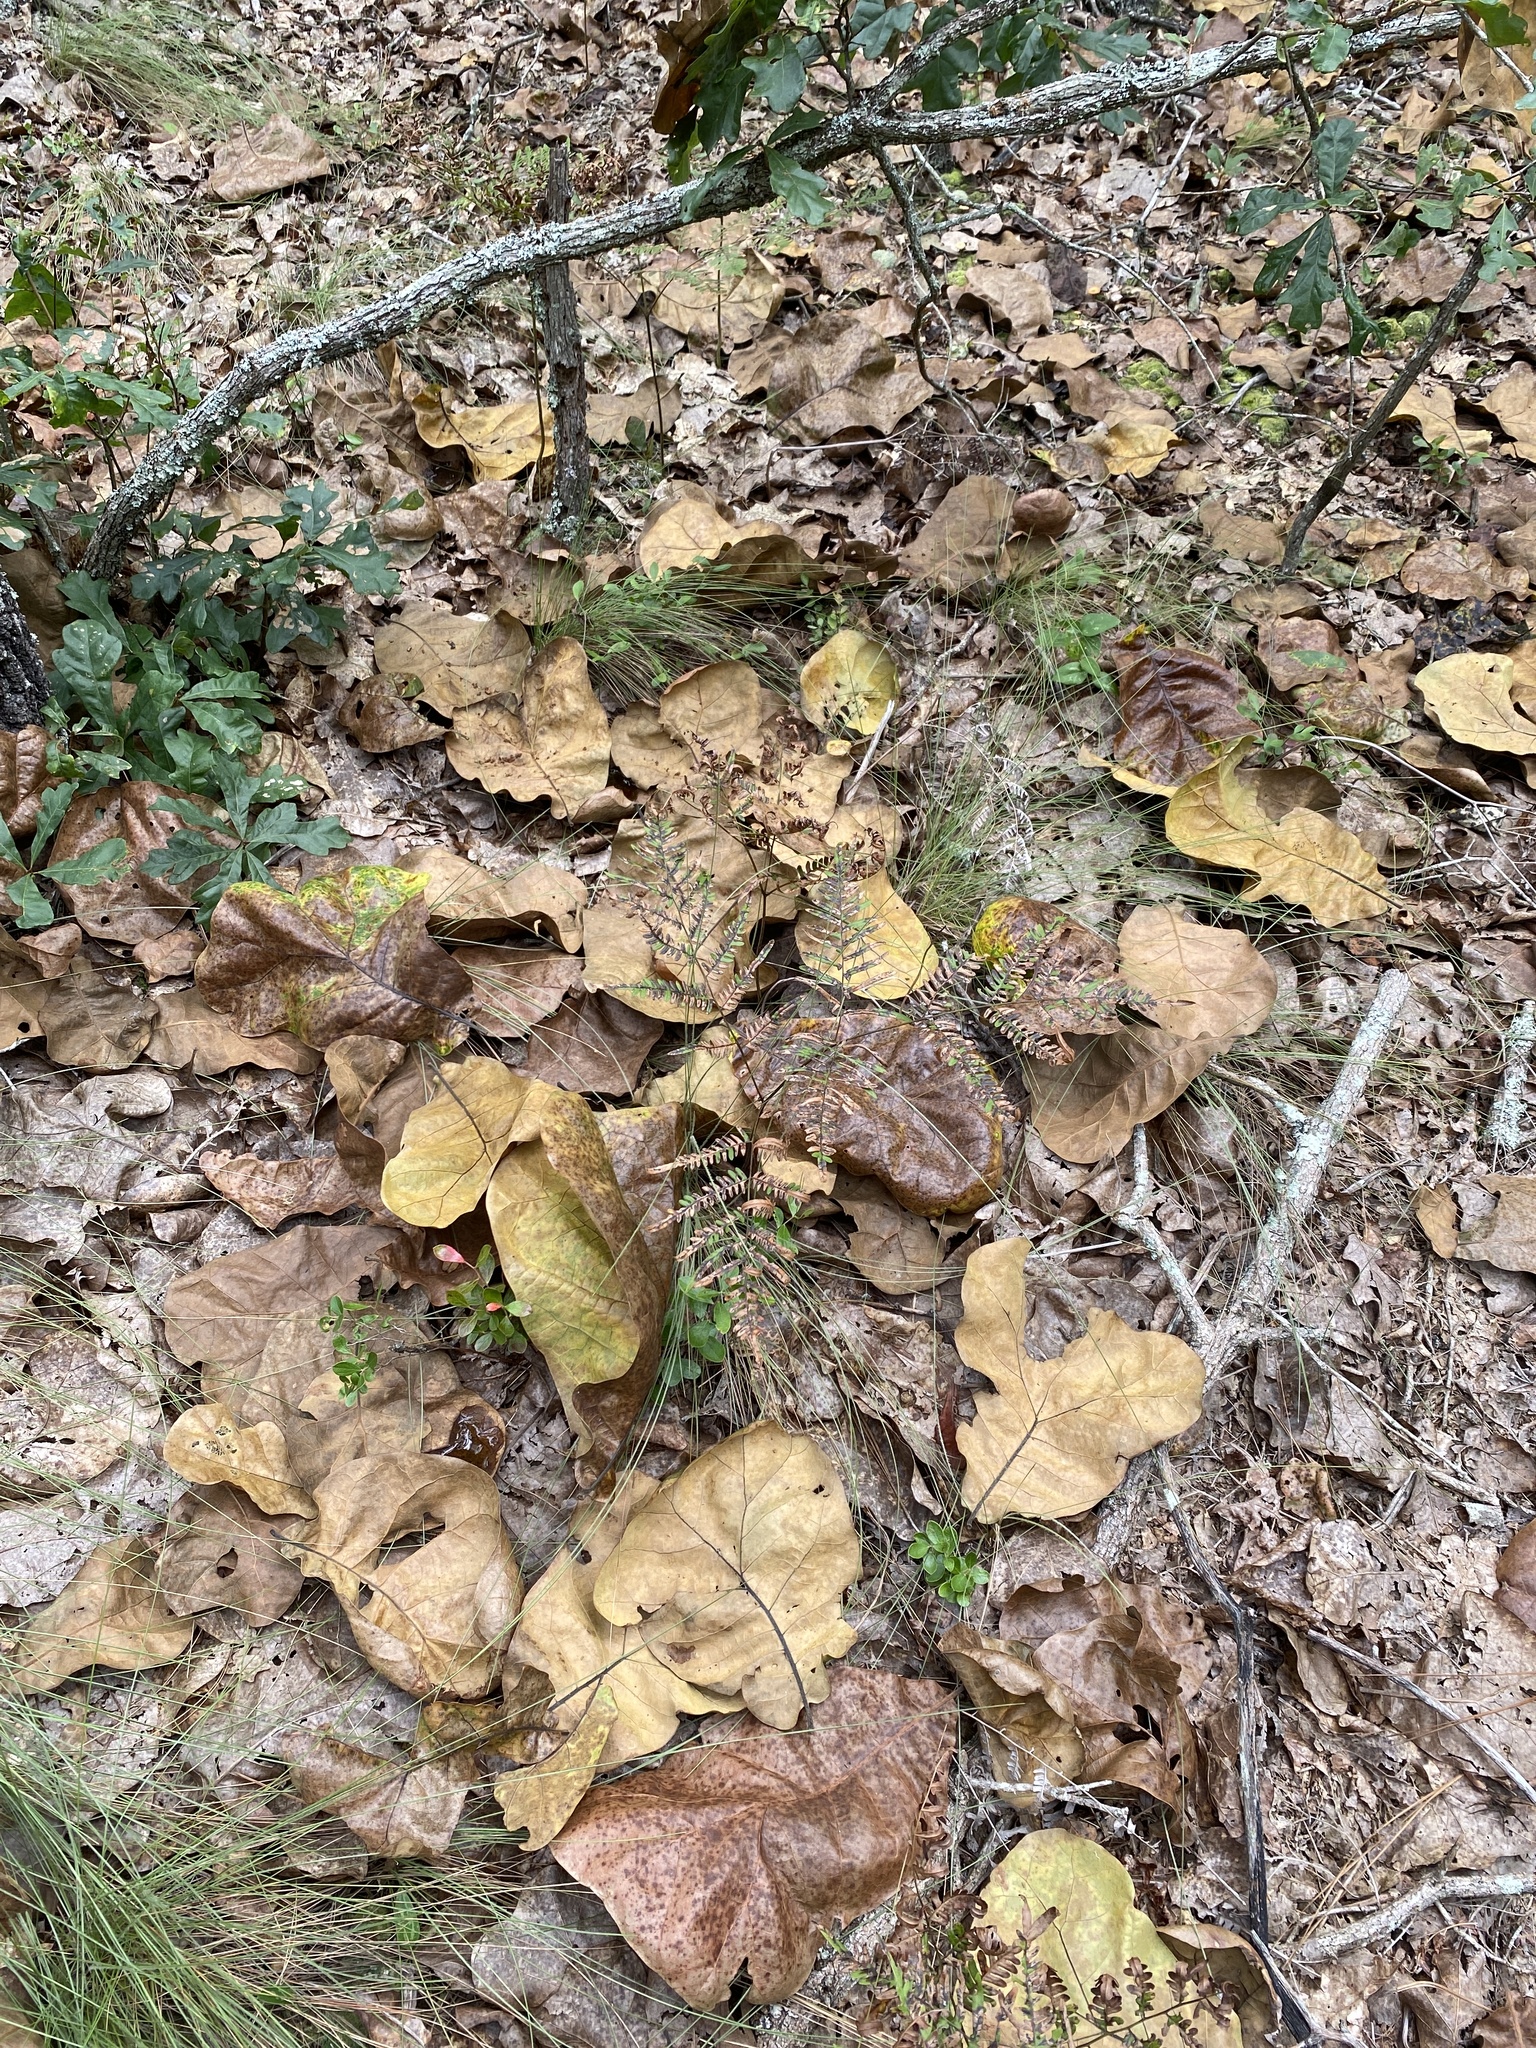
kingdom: Plantae
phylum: Tracheophyta
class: Magnoliopsida
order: Fagales
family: Fagaceae
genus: Quercus
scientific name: Quercus marilandica
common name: Blackjack oak
